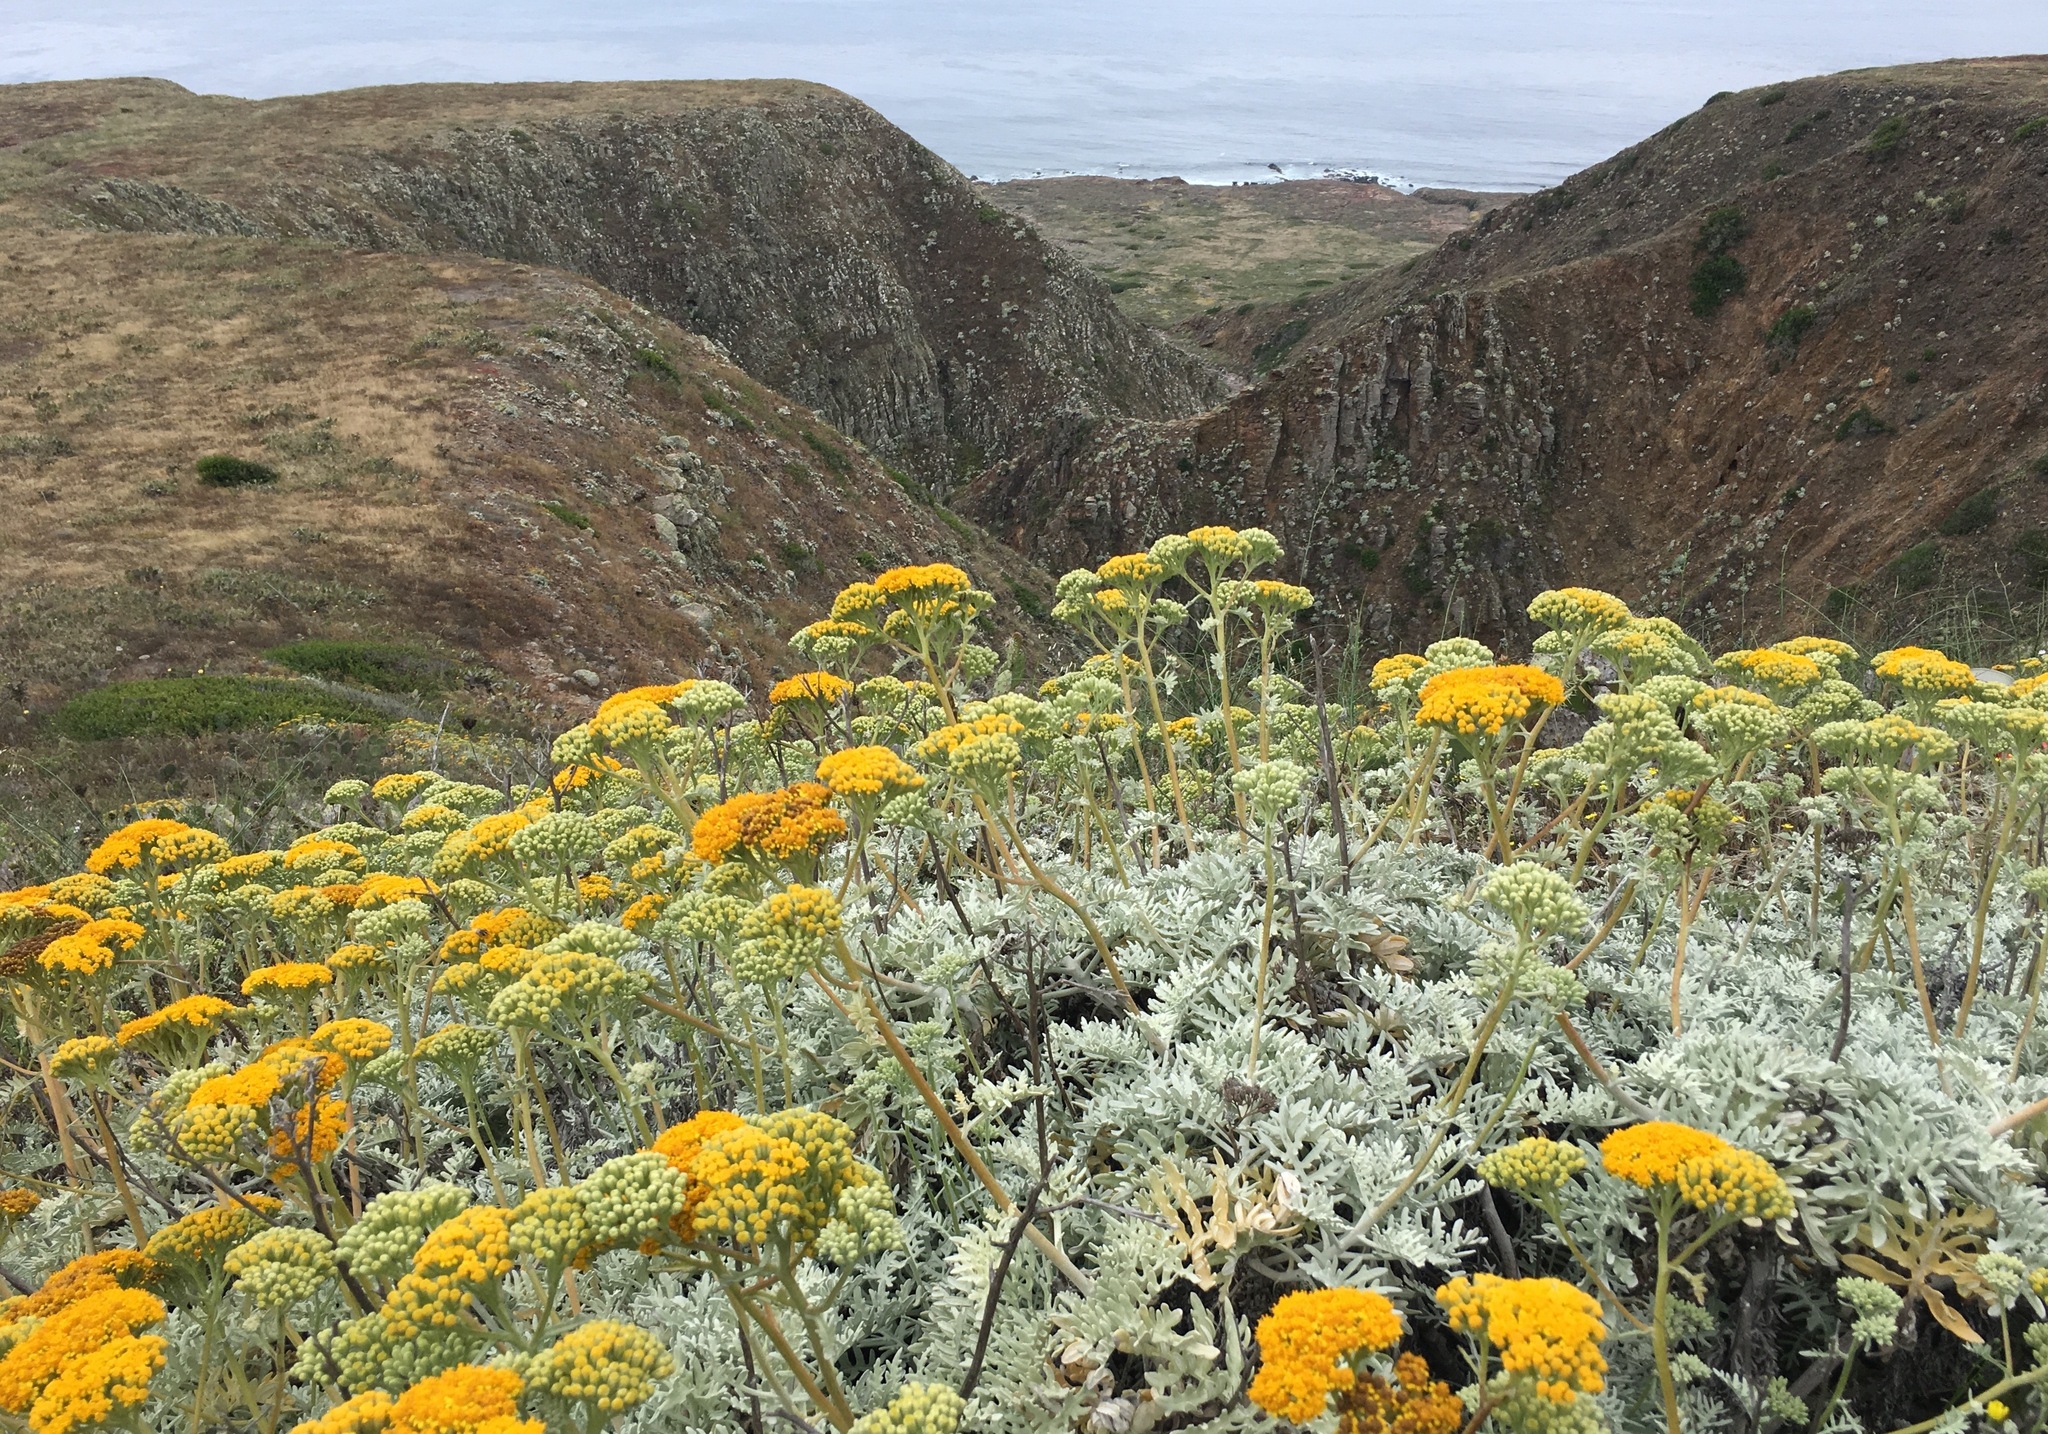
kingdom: Plantae
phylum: Tracheophyta
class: Magnoliopsida
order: Asterales
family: Asteraceae
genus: Constancea
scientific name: Constancea nevinii
